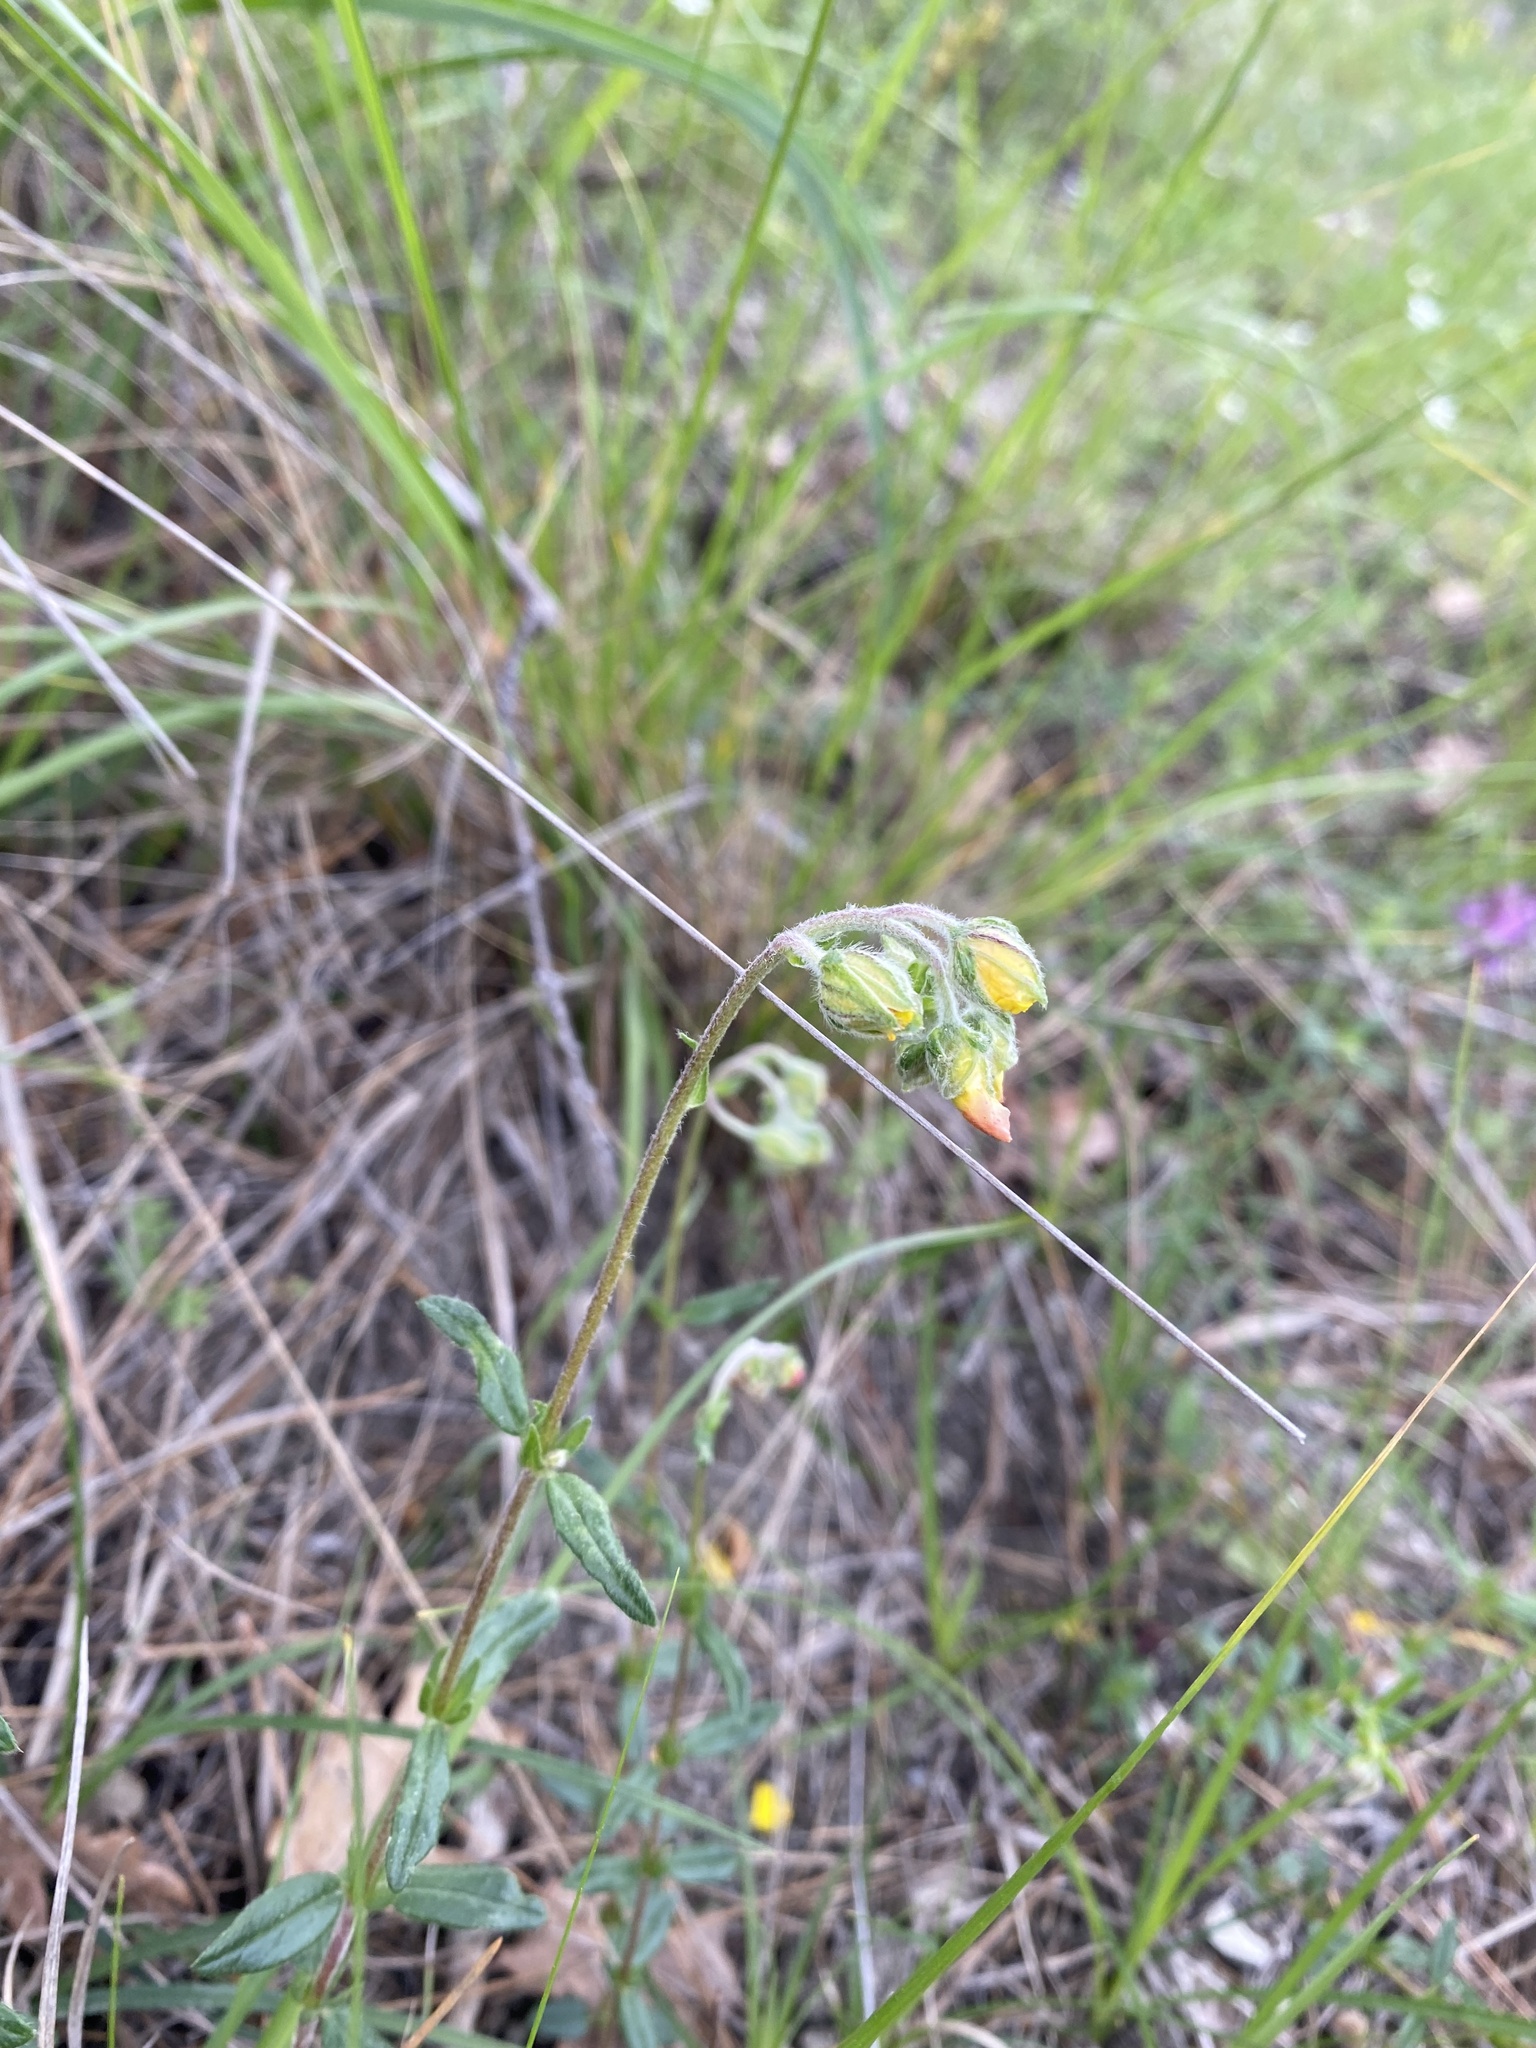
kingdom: Plantae
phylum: Tracheophyta
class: Magnoliopsida
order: Malvales
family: Cistaceae
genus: Helianthemum
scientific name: Helianthemum nummularium
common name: Common rock-rose
